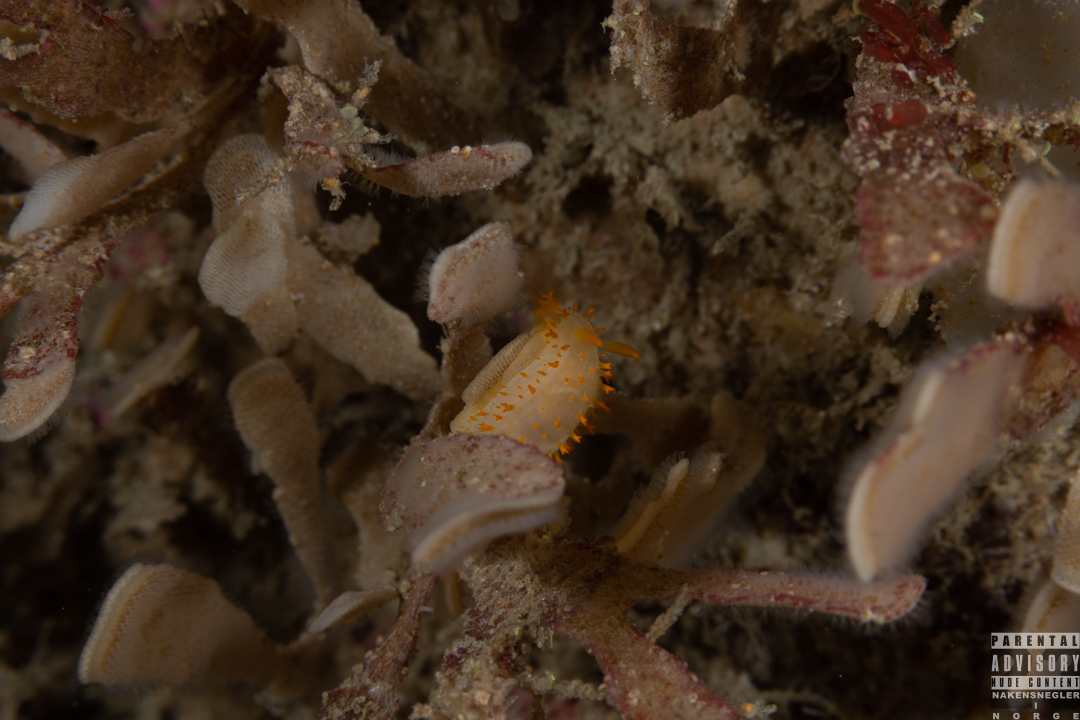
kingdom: Animalia
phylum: Mollusca
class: Gastropoda
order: Nudibranchia
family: Polyceridae
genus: Crimora
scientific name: Crimora papillata
